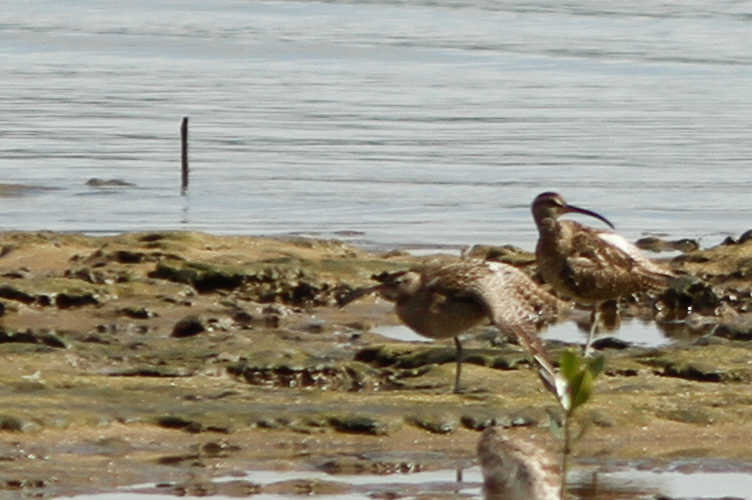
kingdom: Animalia
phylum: Chordata
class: Aves
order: Charadriiformes
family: Scolopacidae
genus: Numenius
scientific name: Numenius phaeopus
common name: Whimbrel
